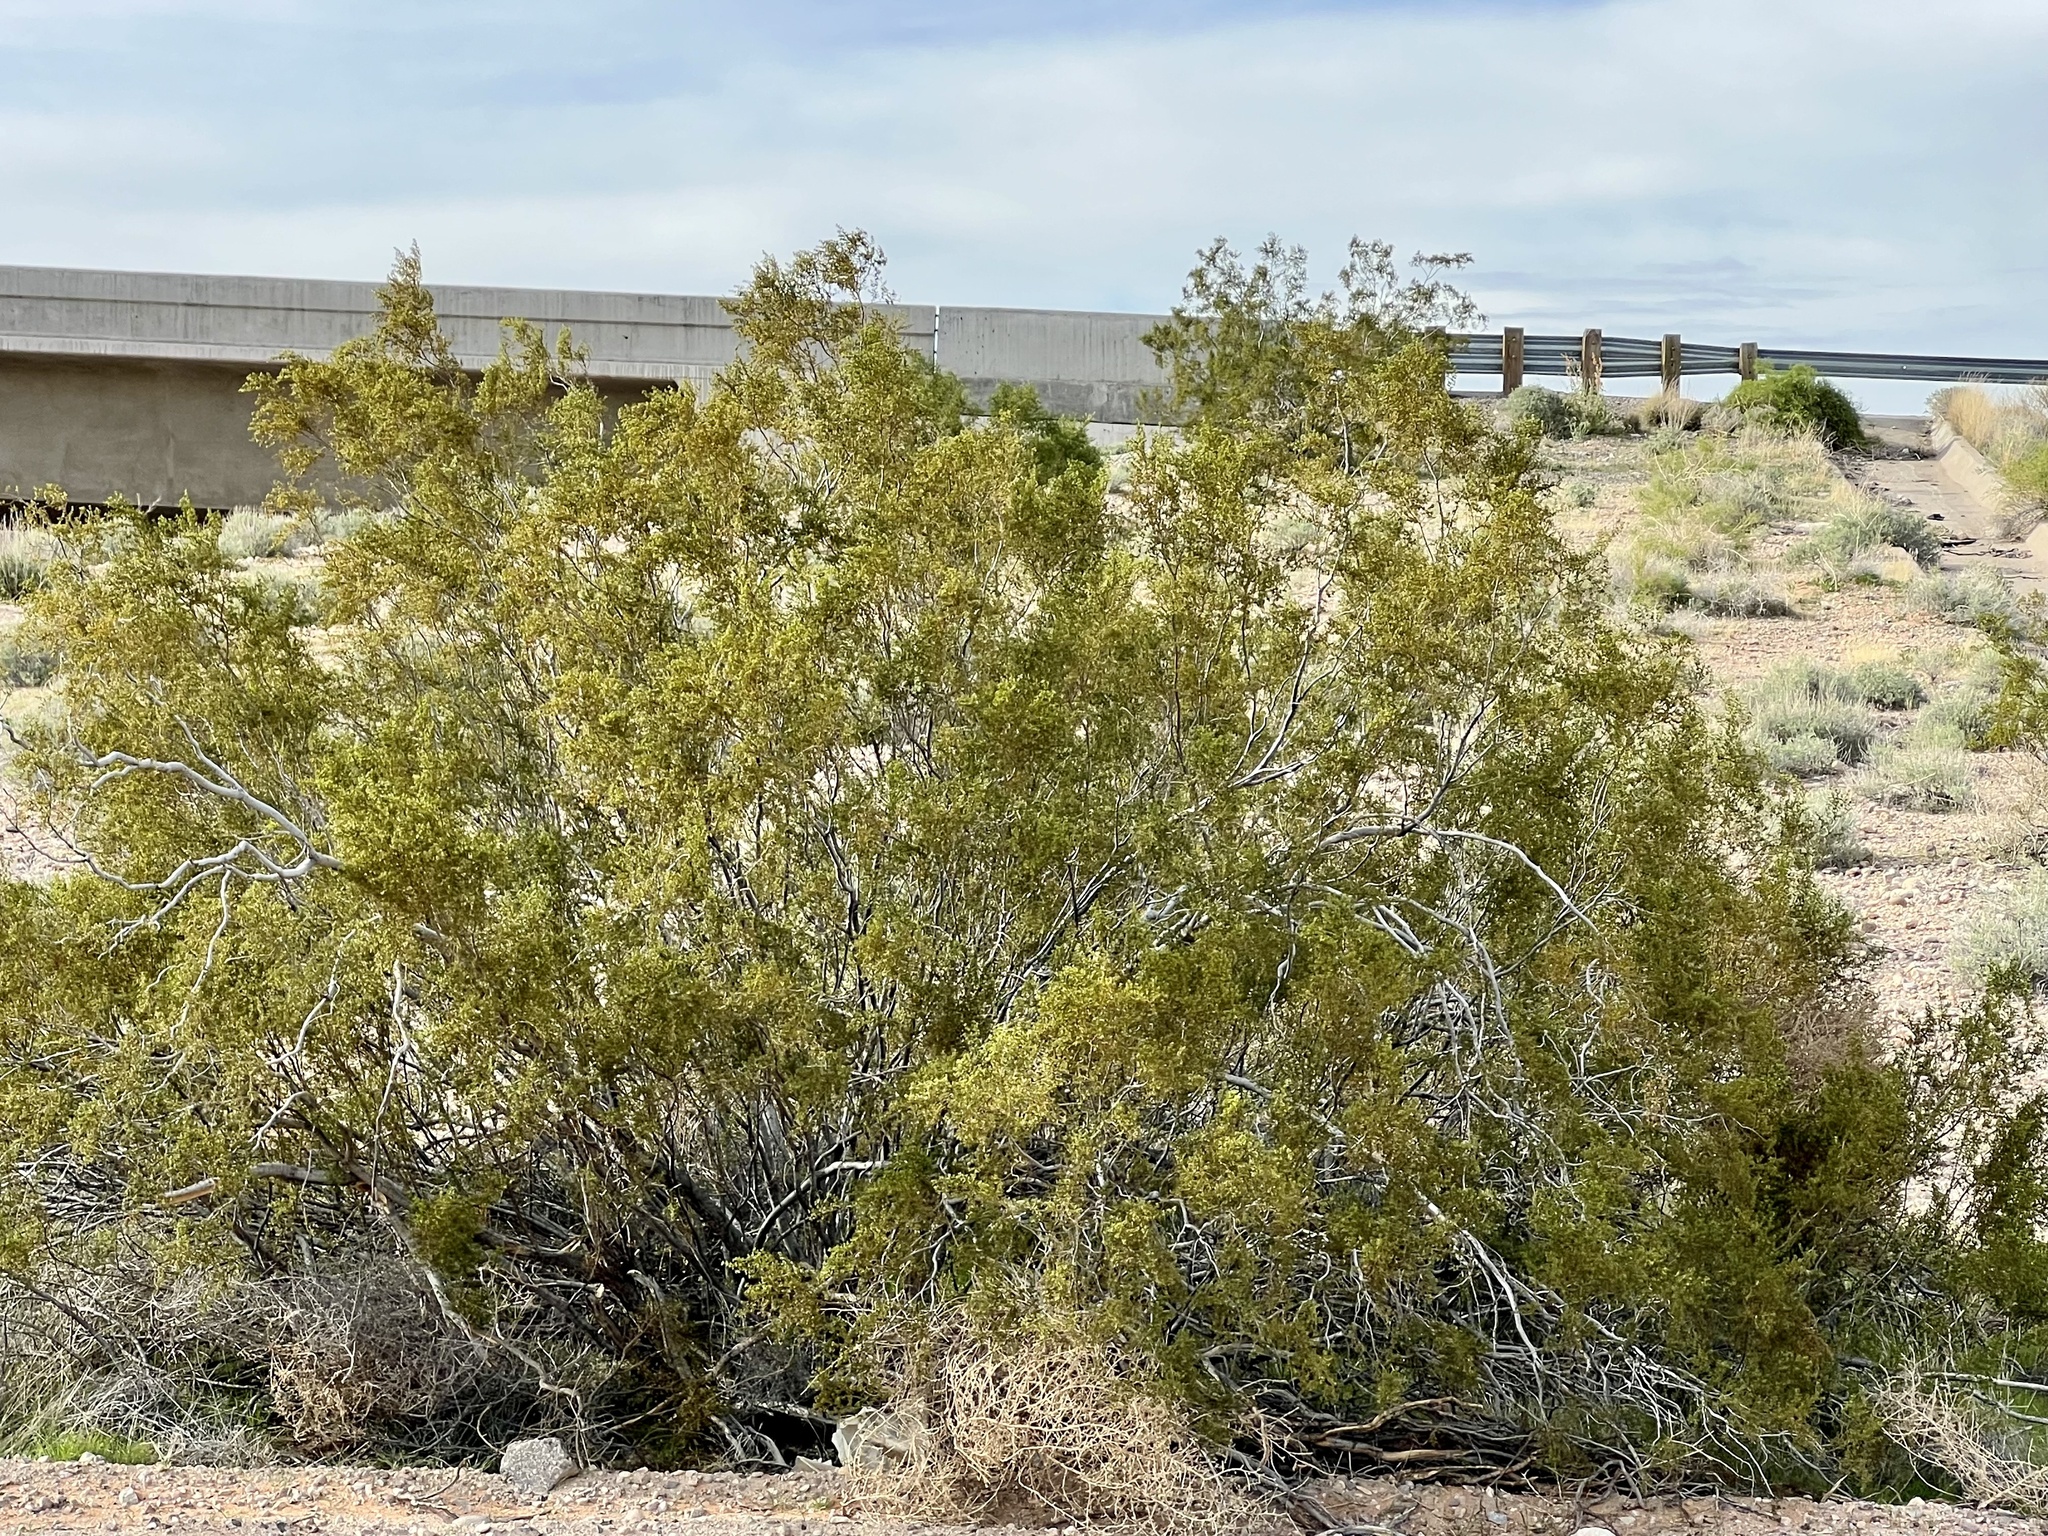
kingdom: Plantae
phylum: Tracheophyta
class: Magnoliopsida
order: Zygophyllales
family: Zygophyllaceae
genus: Larrea
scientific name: Larrea tridentata
